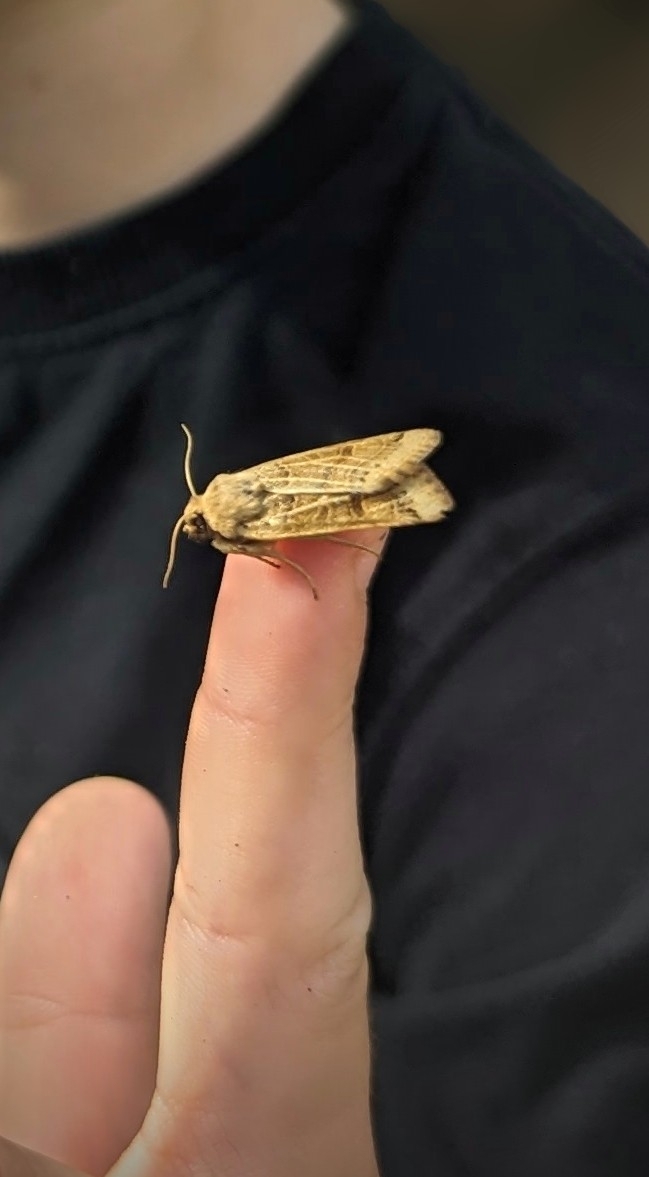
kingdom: Animalia
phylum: Arthropoda
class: Insecta
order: Lepidoptera
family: Noctuidae
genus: Agrochola
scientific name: Agrochola lunosa
